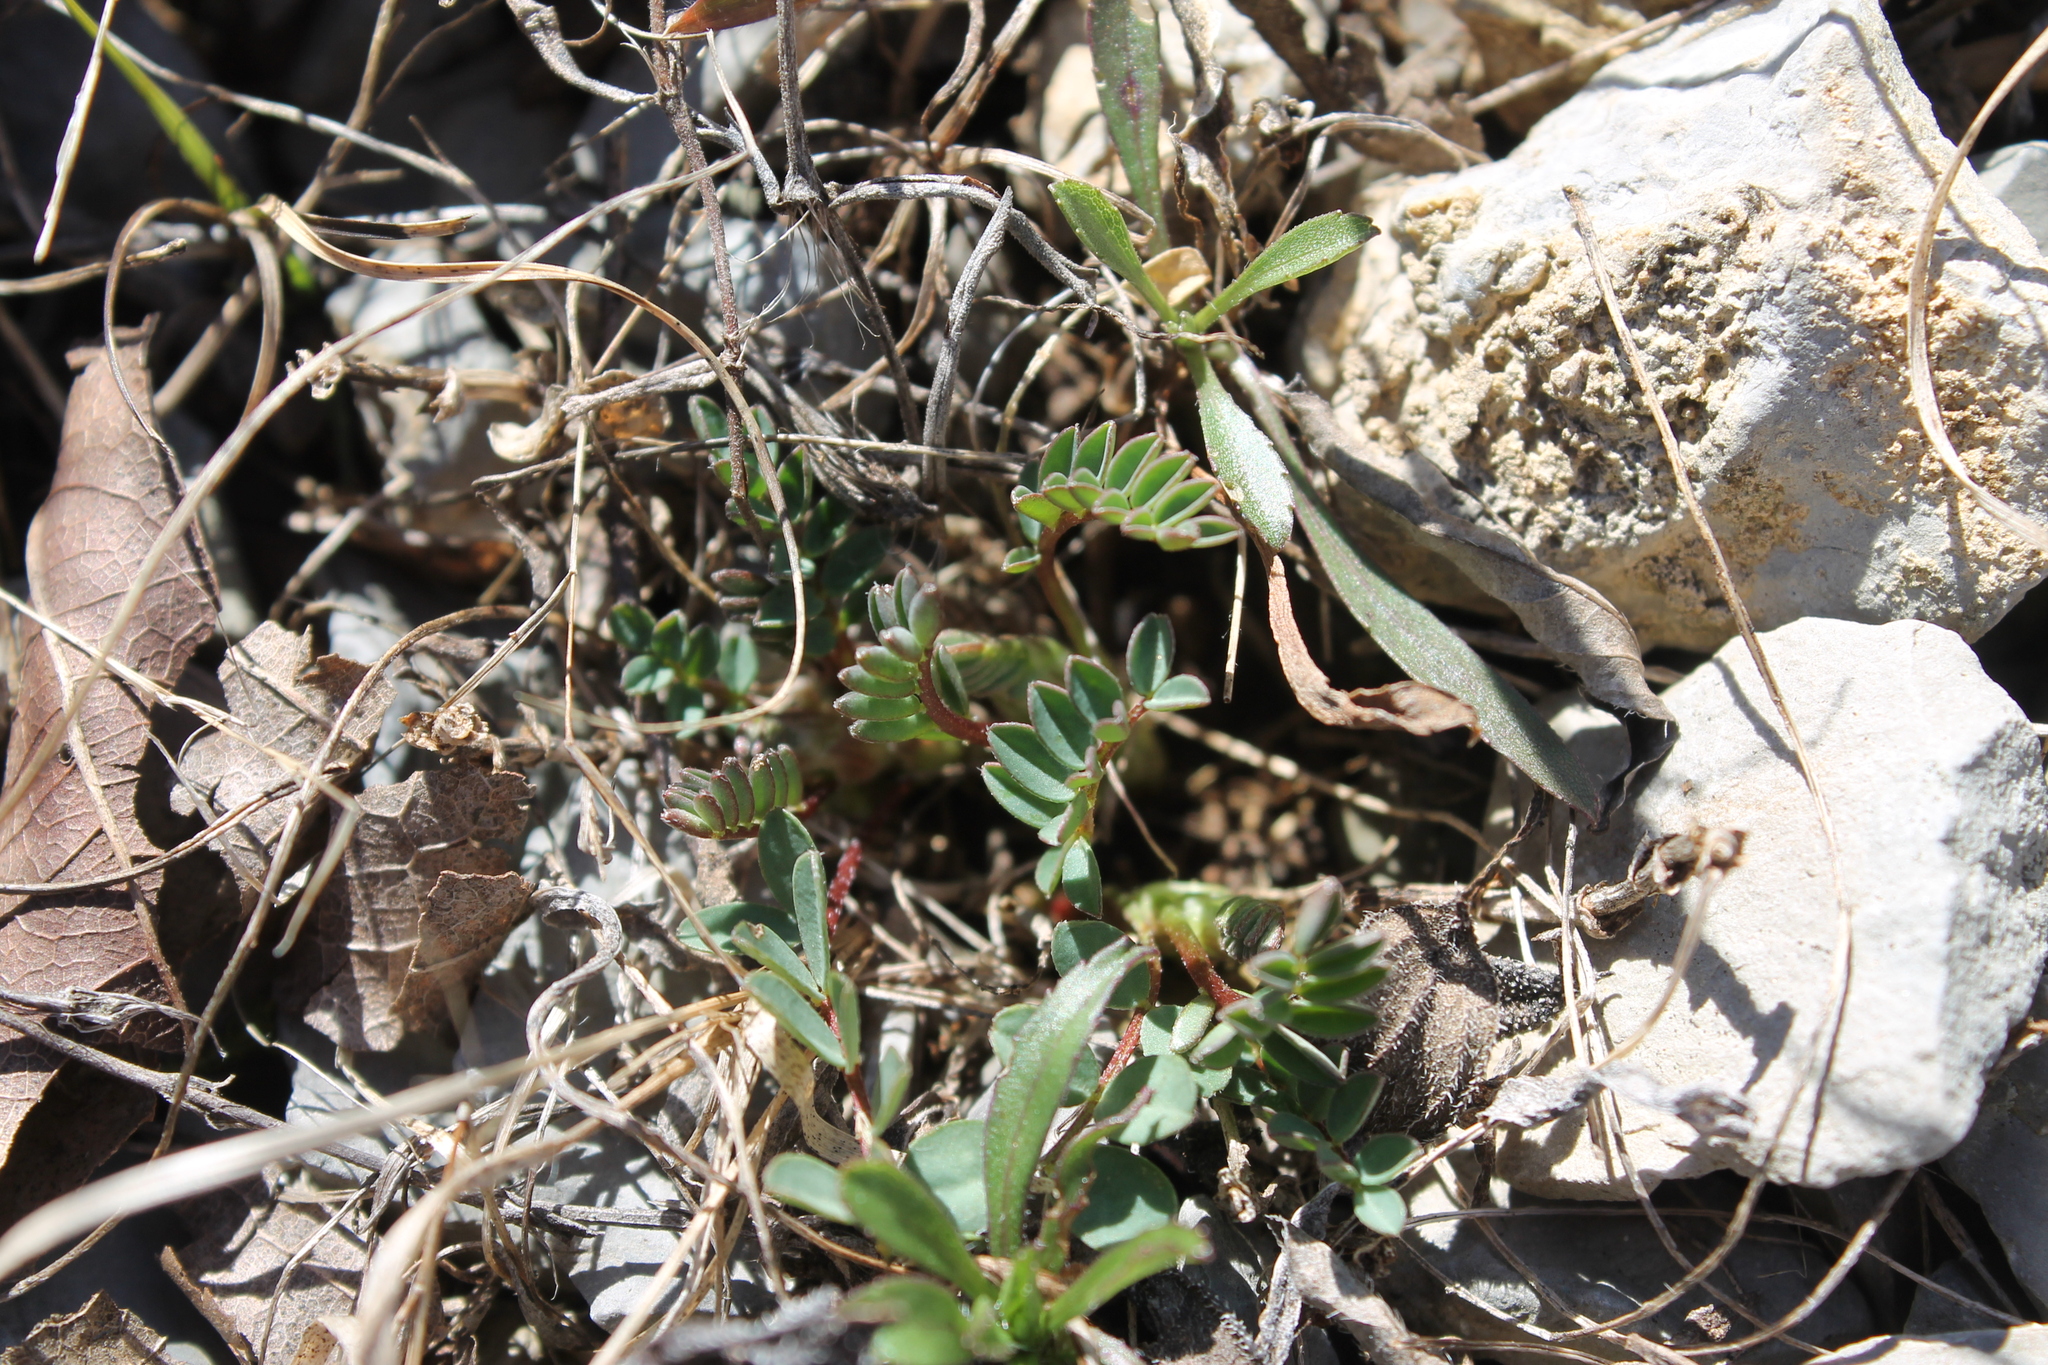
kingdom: Plantae
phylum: Tracheophyta
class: Magnoliopsida
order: Fabales
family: Fabaceae
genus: Astragalus
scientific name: Astragalus bibullatus
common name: Pyne's ground-plum
